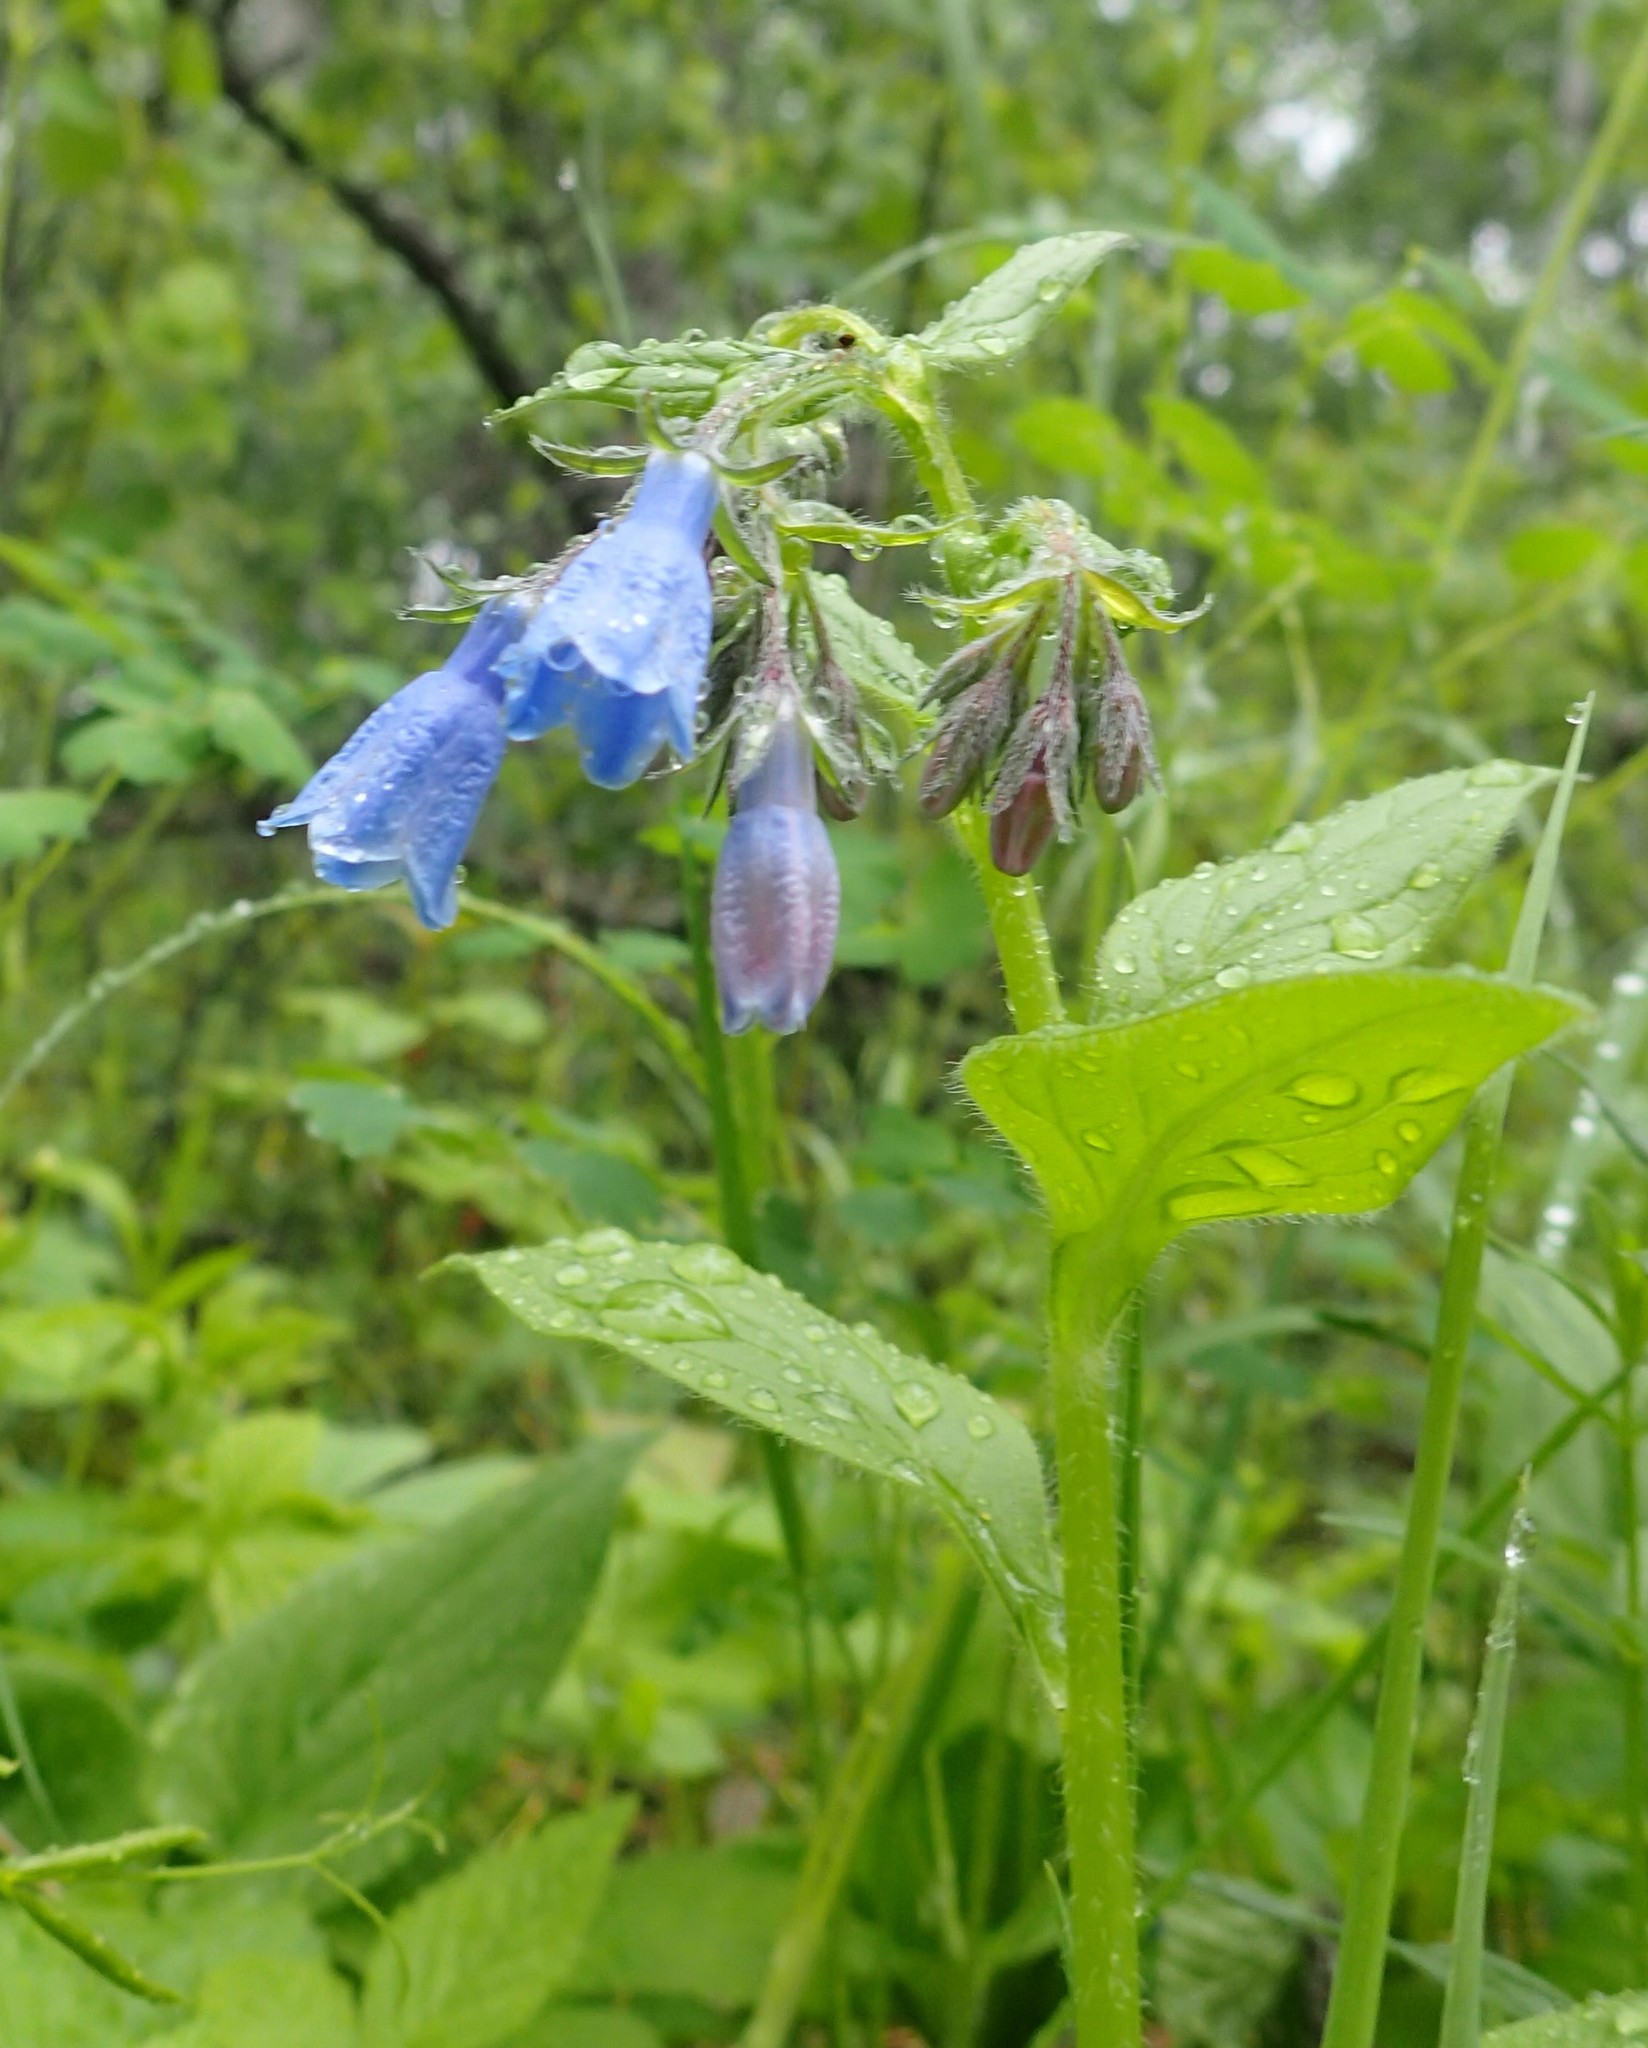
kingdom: Plantae
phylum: Tracheophyta
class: Magnoliopsida
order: Boraginales
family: Boraginaceae
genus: Mertensia
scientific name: Mertensia paniculata
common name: Panicled bluebells
